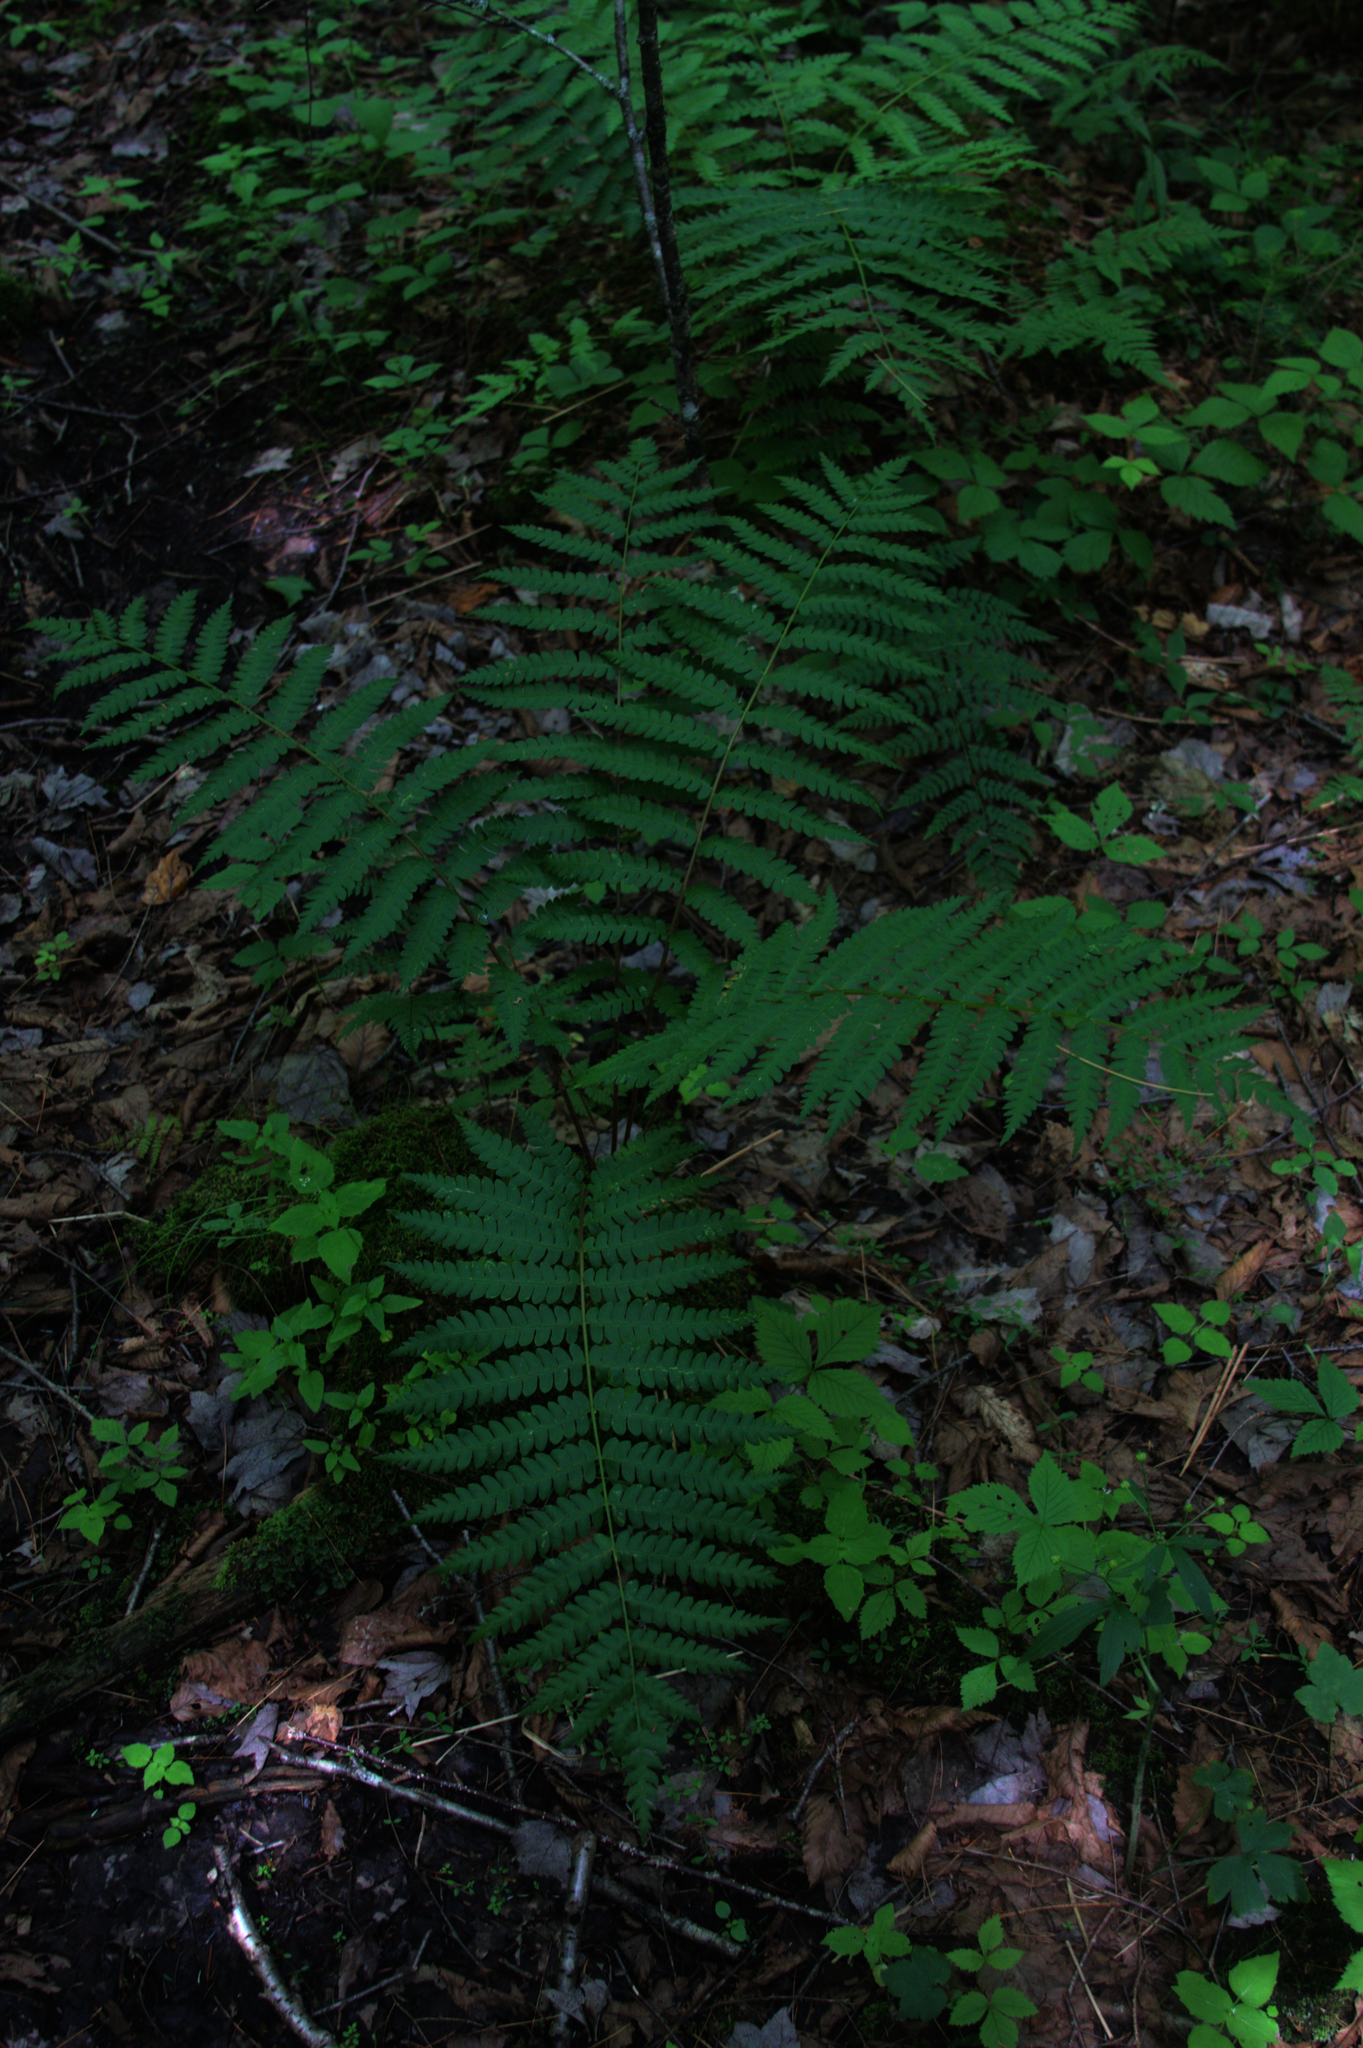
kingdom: Plantae
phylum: Tracheophyta
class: Polypodiopsida
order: Osmundales
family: Osmundaceae
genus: Osmundastrum
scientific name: Osmundastrum cinnamomeum
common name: Cinnamon fern
